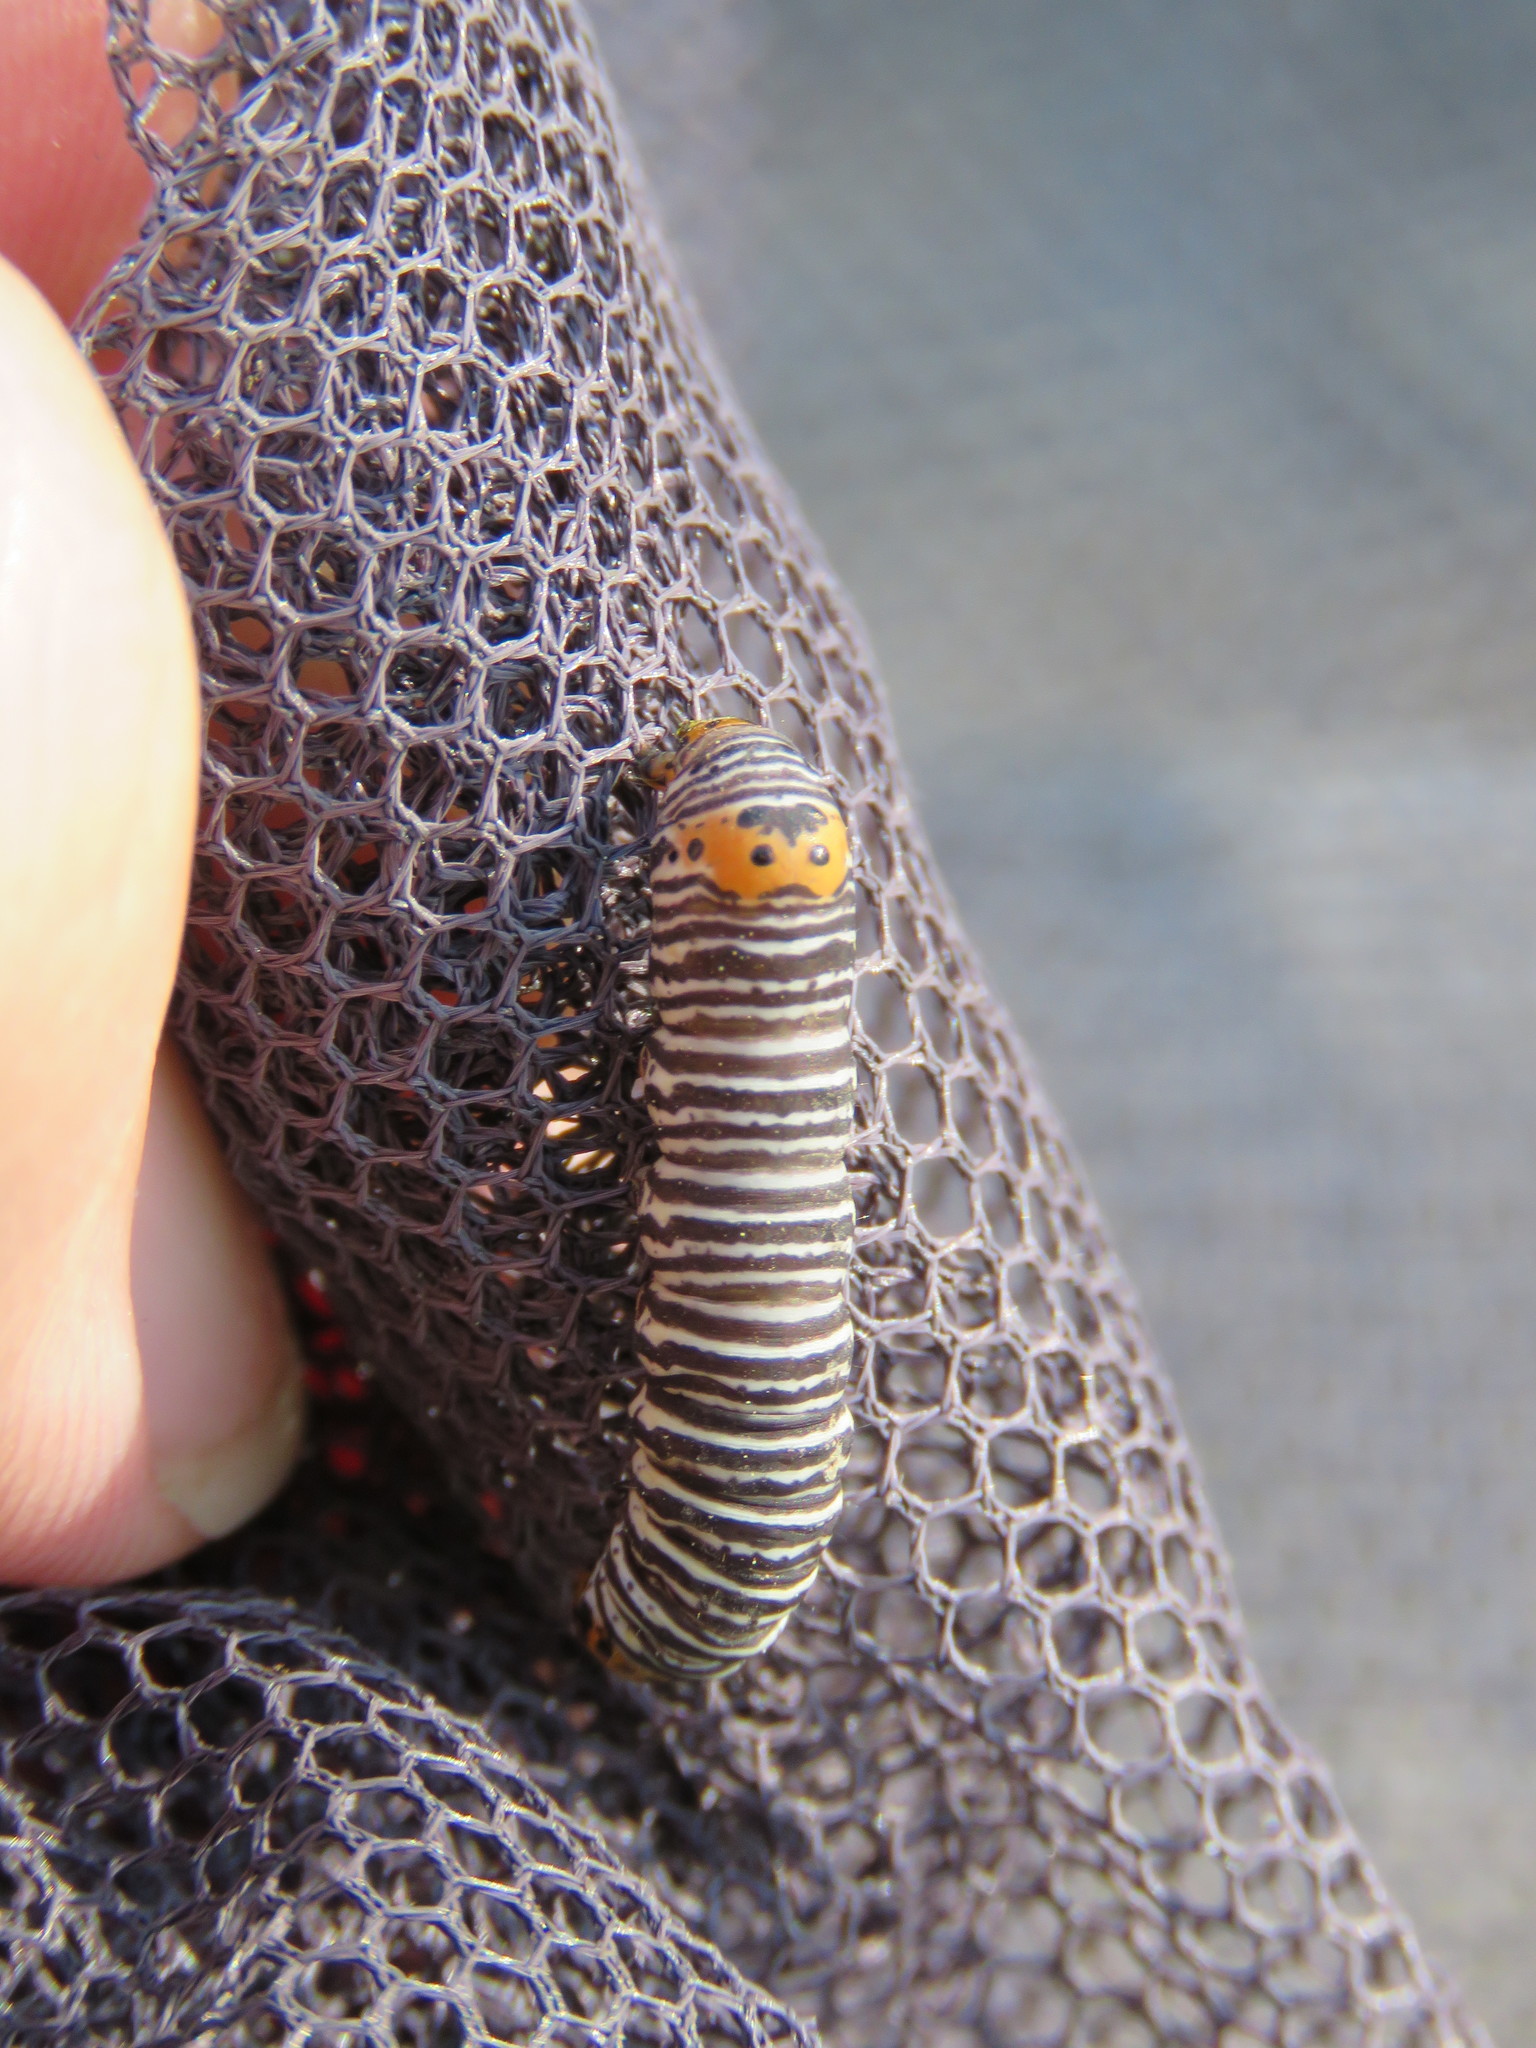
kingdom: Animalia
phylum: Arthropoda
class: Insecta
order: Lepidoptera
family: Noctuidae
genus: Psychomorpha
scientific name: Psychomorpha epimenis
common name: Grapevine epimenis moth
